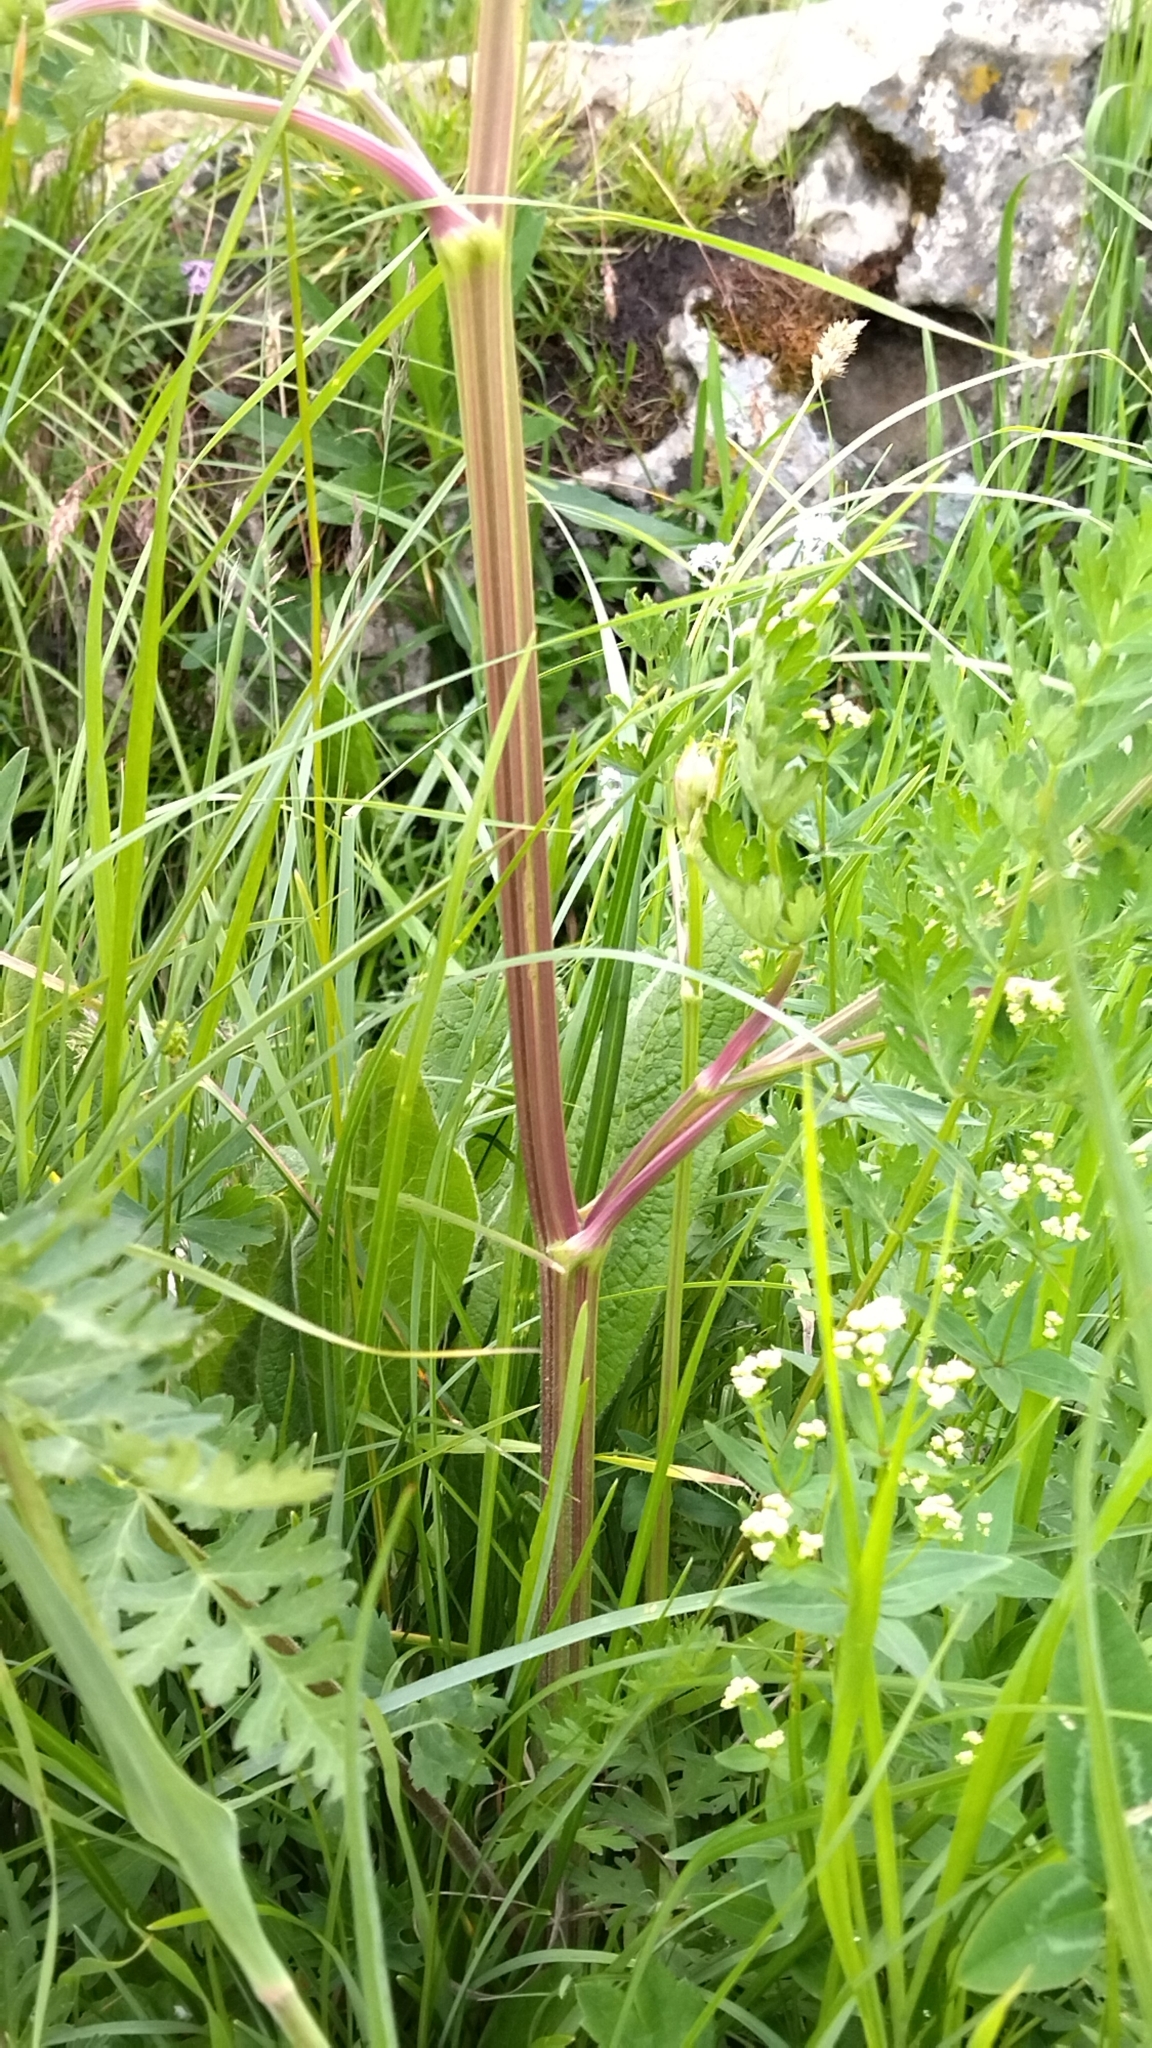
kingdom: Plantae
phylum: Tracheophyta
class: Magnoliopsida
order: Apiales
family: Apiaceae
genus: Seseli
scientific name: Seseli libanotis
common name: Mooncarrot
